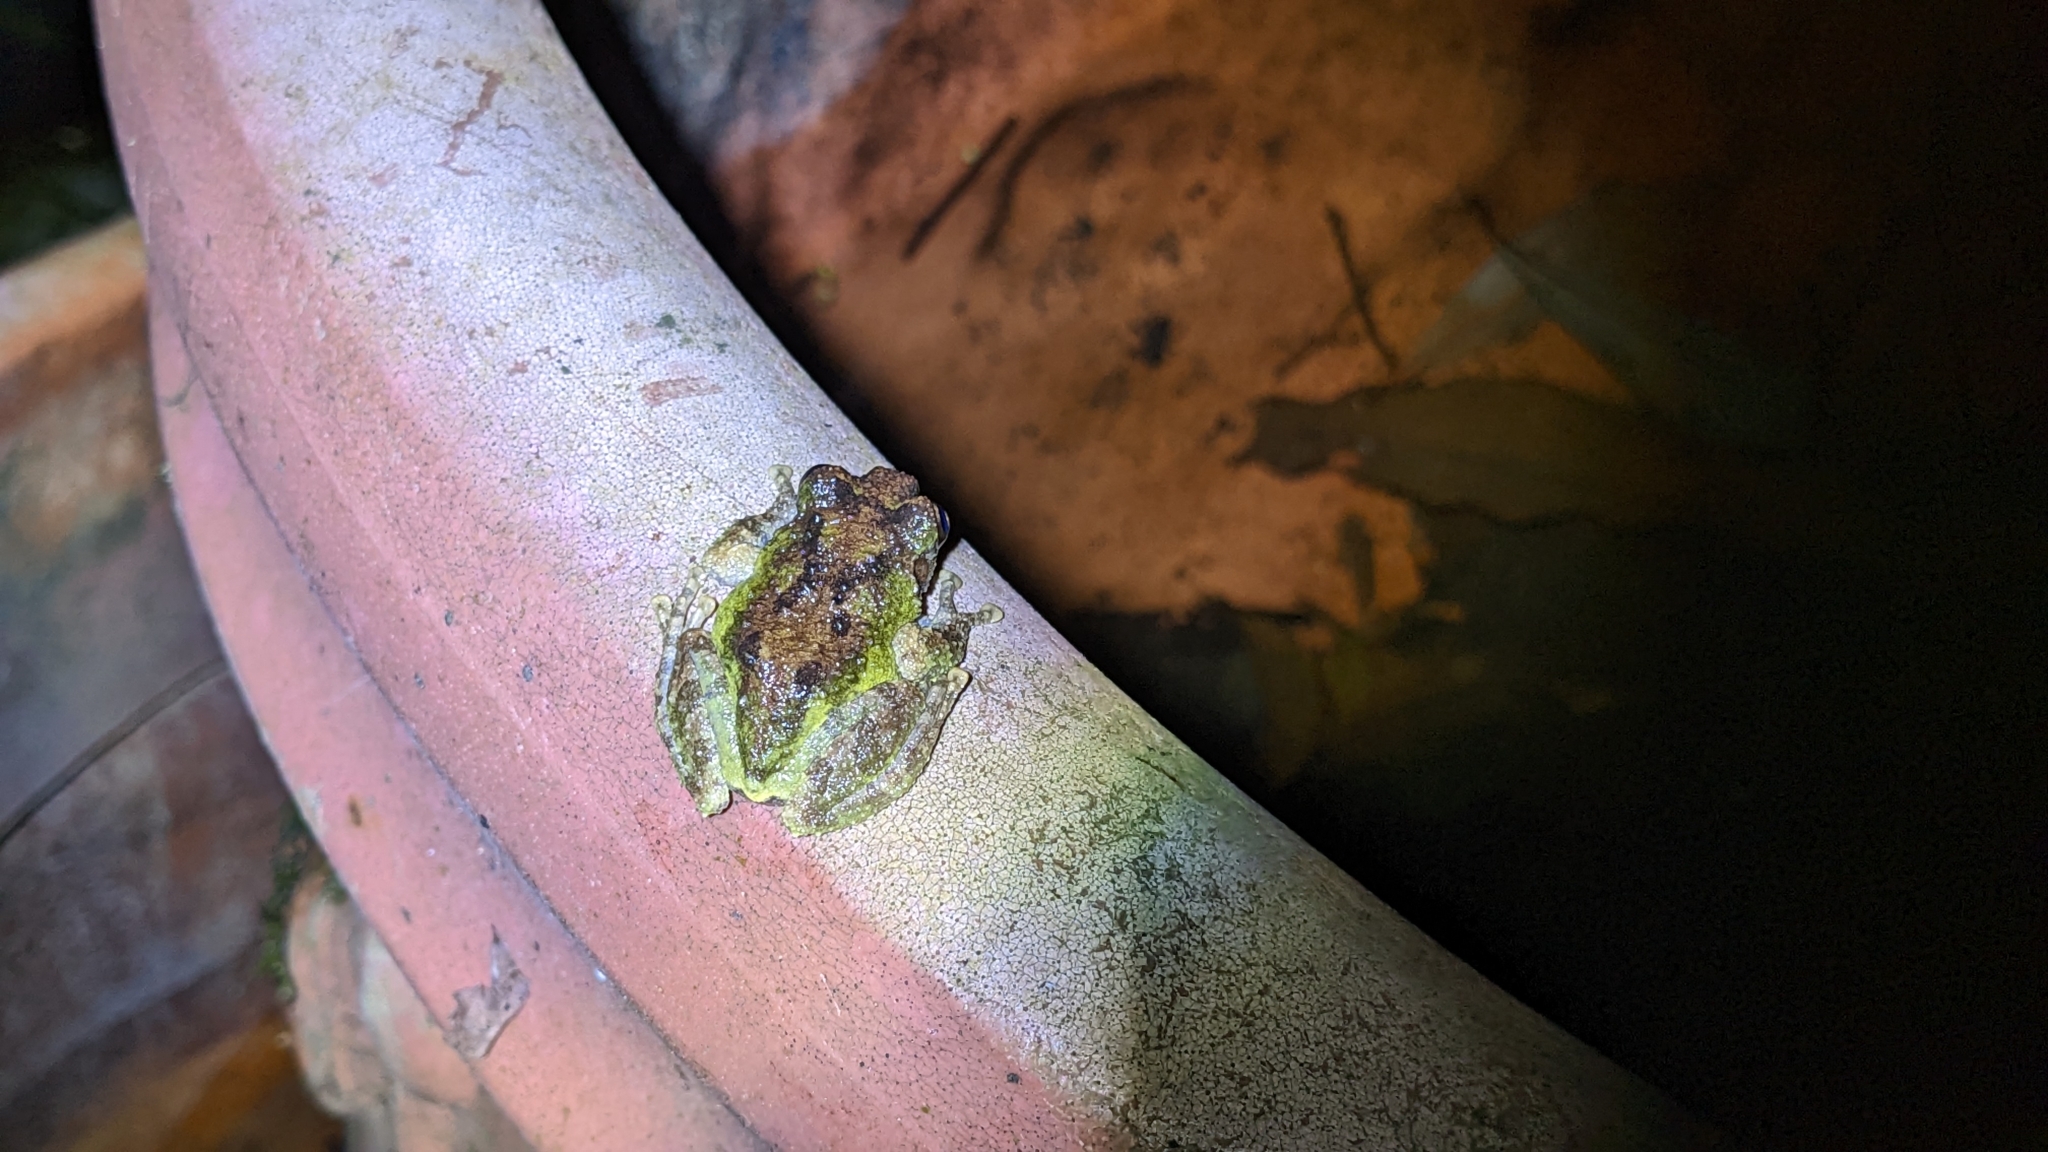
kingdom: Animalia
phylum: Chordata
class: Amphibia
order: Anura
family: Rhacophoridae
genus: Kurixalus
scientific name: Kurixalus eiffingeri
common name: Eiffinger’s treefrog
